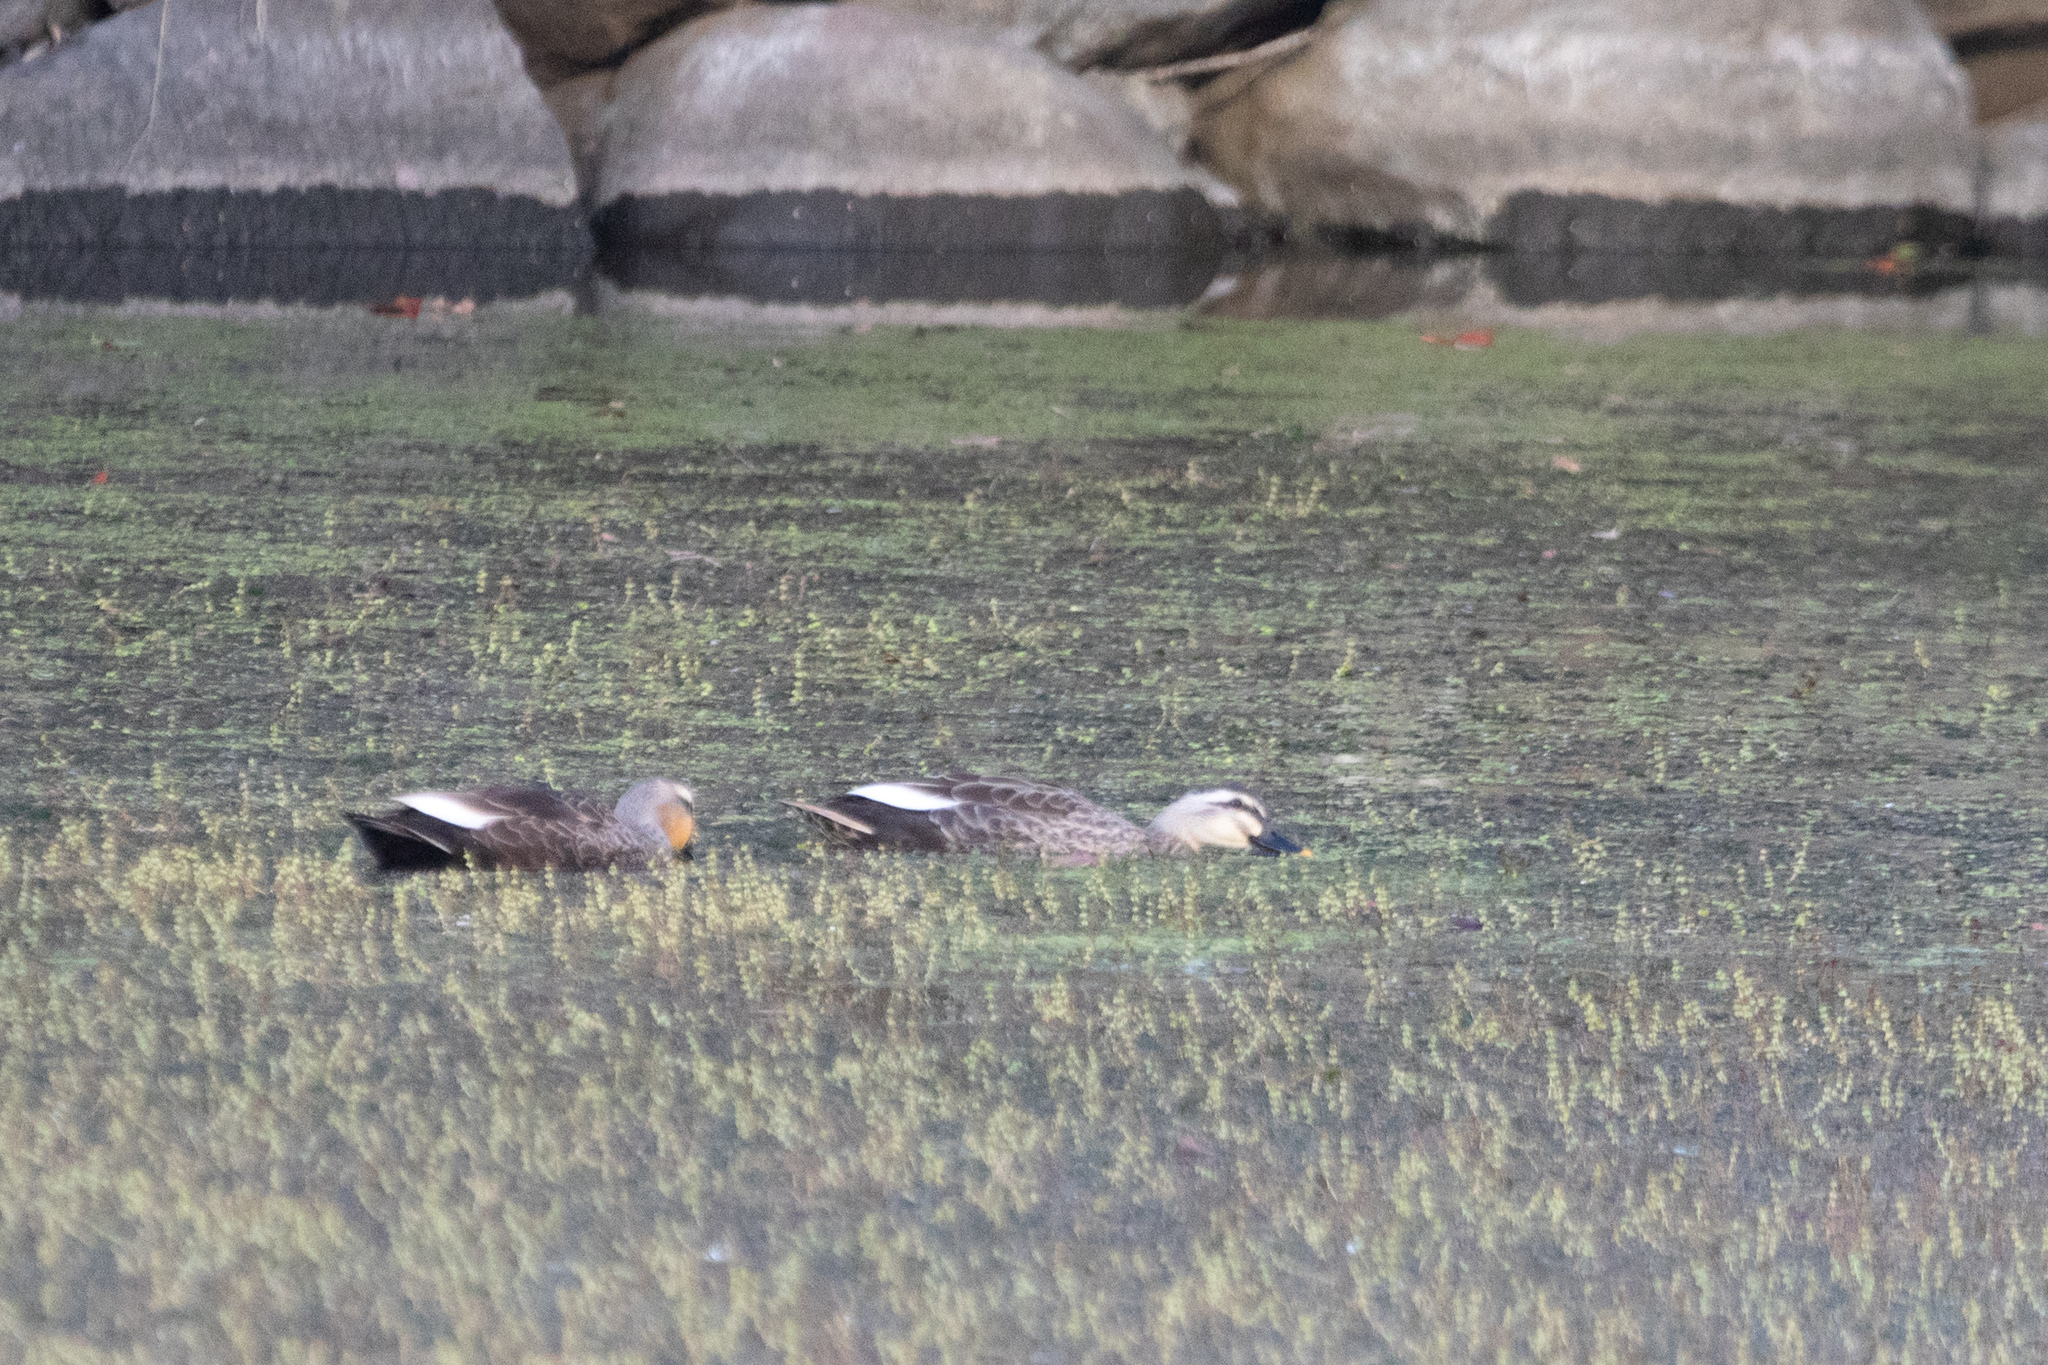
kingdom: Animalia
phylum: Chordata
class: Aves
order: Anseriformes
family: Anatidae
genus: Anas
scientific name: Anas zonorhyncha
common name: Eastern spot-billed duck
